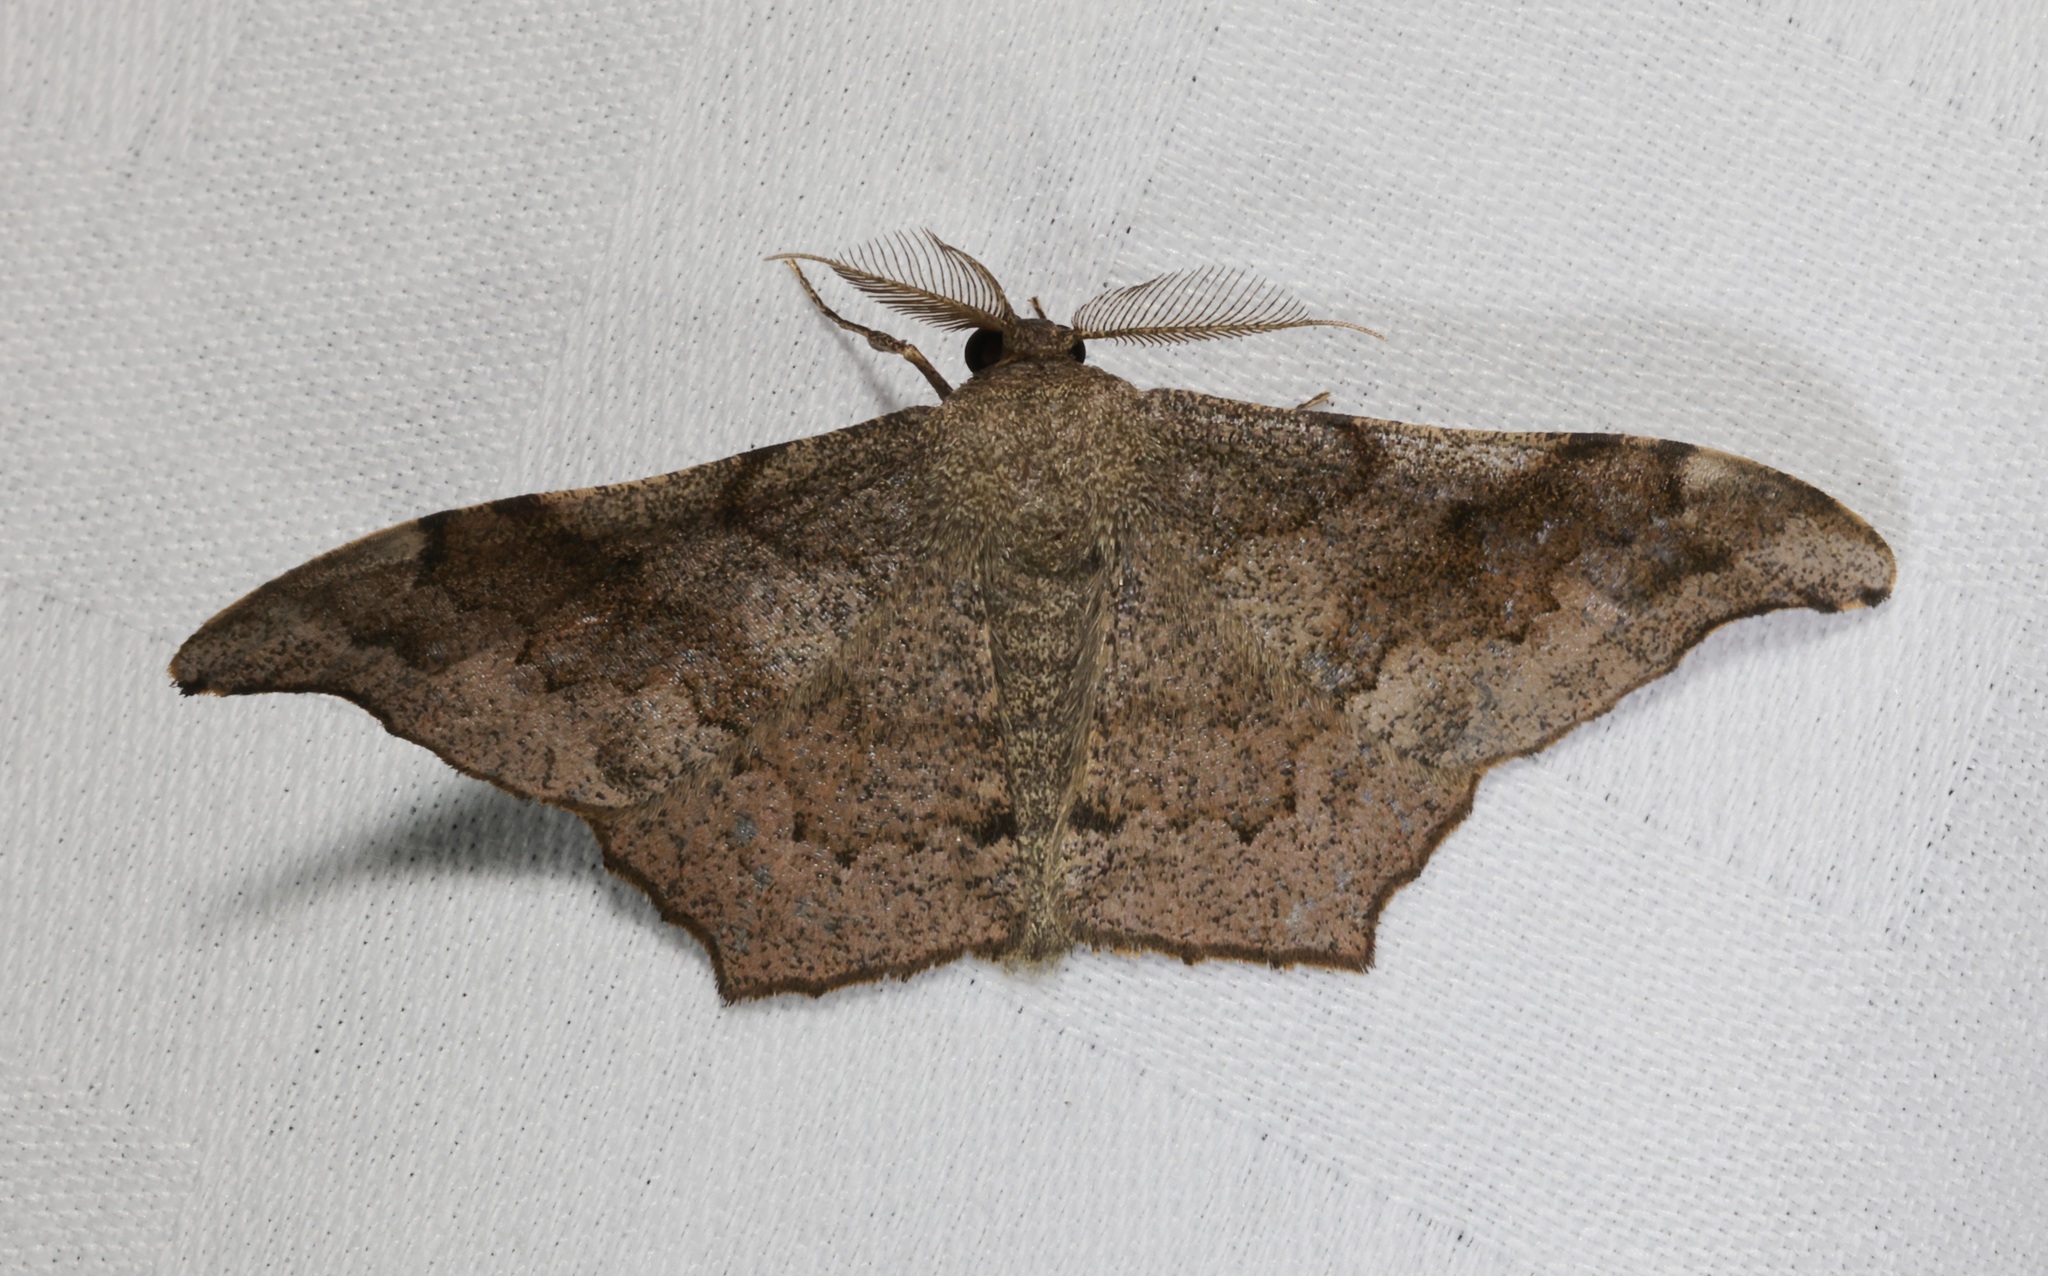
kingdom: Animalia
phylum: Arthropoda
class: Insecta
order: Lepidoptera
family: Geometridae
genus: Hyposidra
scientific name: Hyposidra talaca
